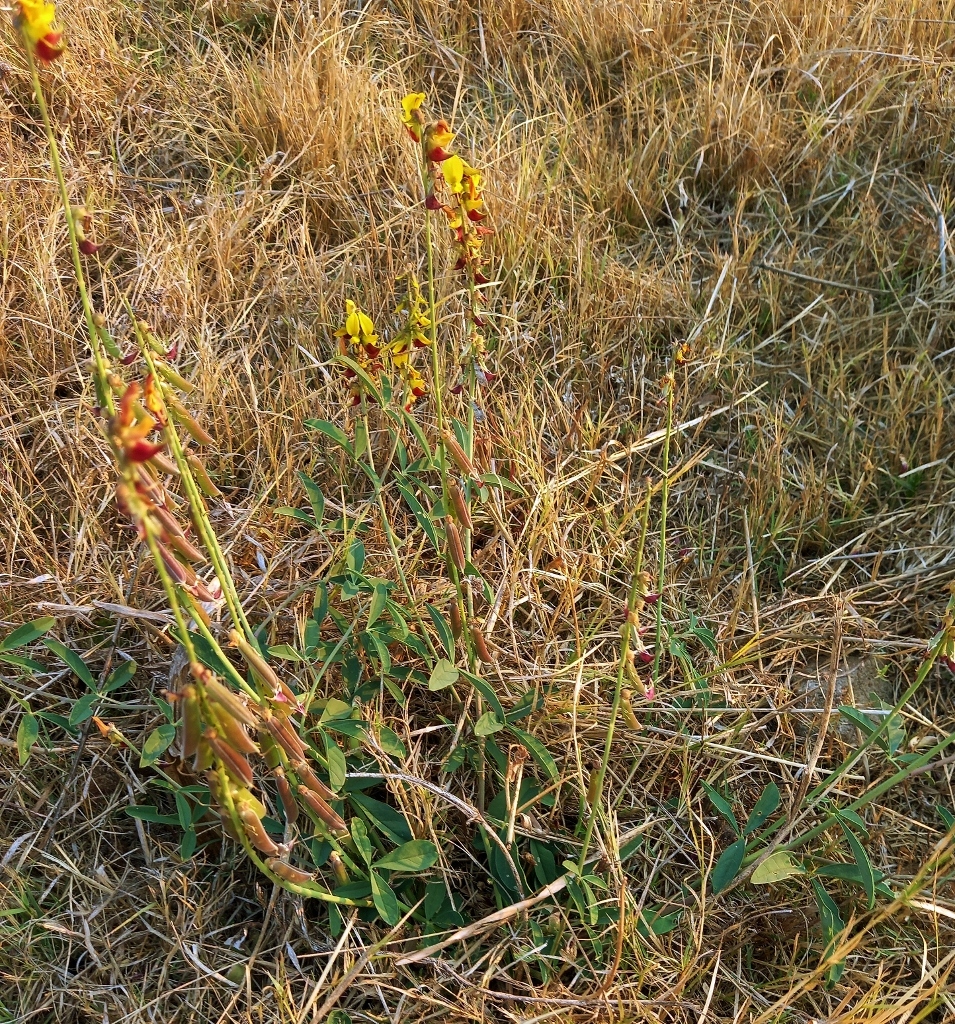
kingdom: Plantae
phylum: Tracheophyta
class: Magnoliopsida
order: Fabales
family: Fabaceae
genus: Crotalaria
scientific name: Crotalaria rogersii
